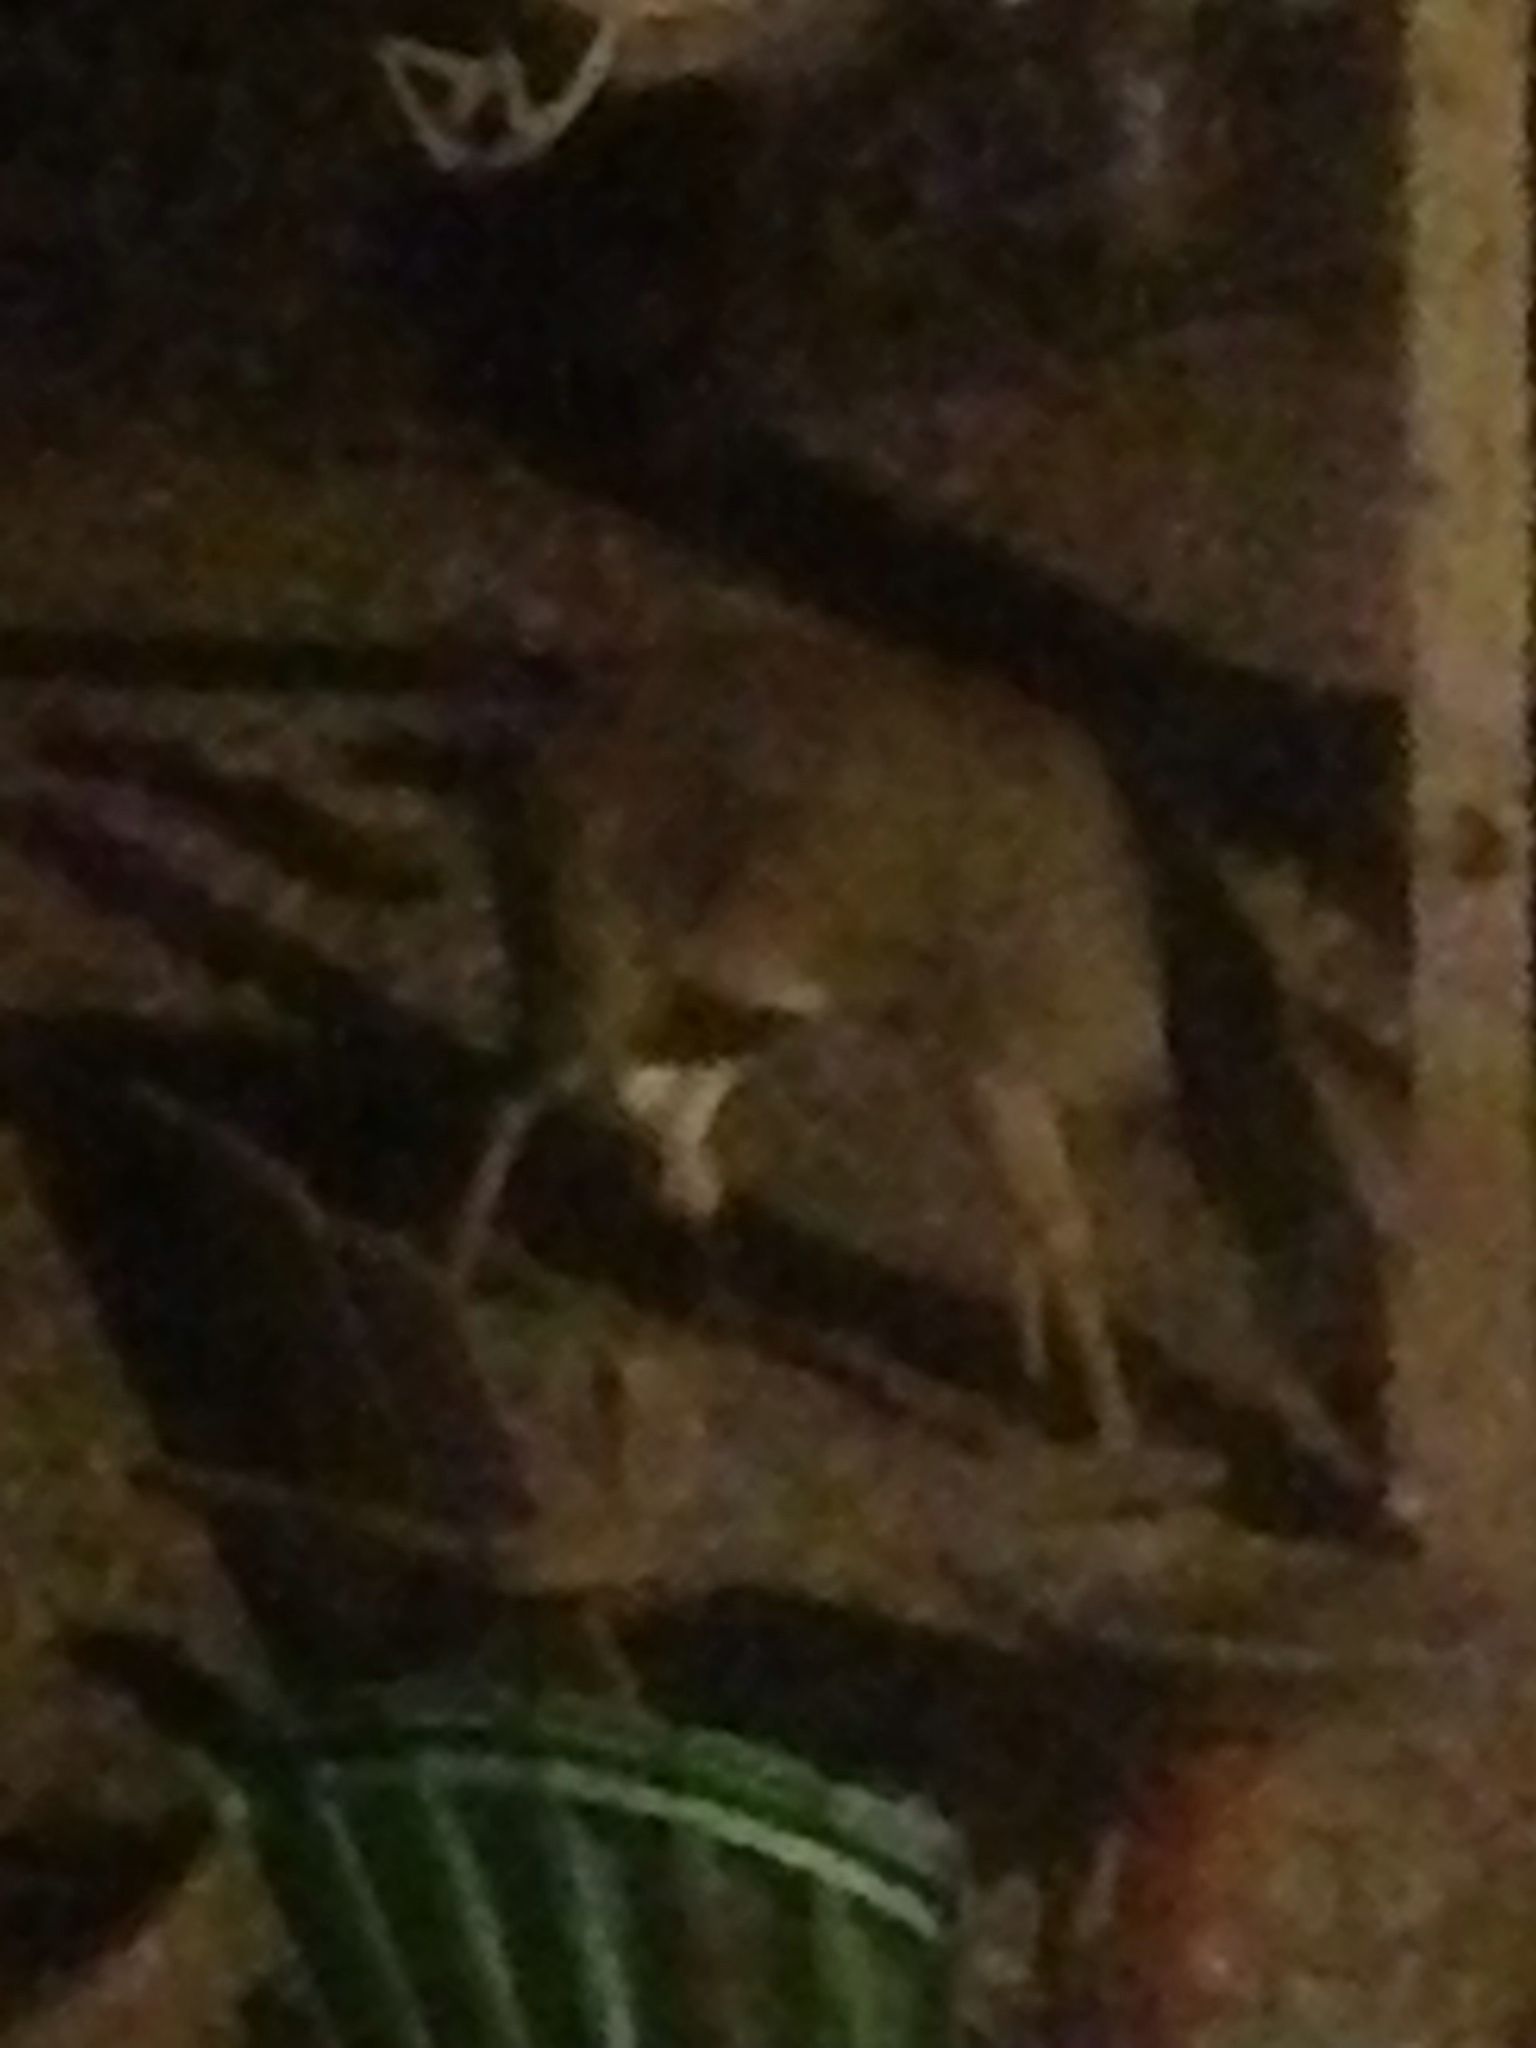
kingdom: Animalia
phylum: Chordata
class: Mammalia
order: Artiodactyla
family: Cervidae
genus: Odocoileus
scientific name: Odocoileus virginianus
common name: White-tailed deer
